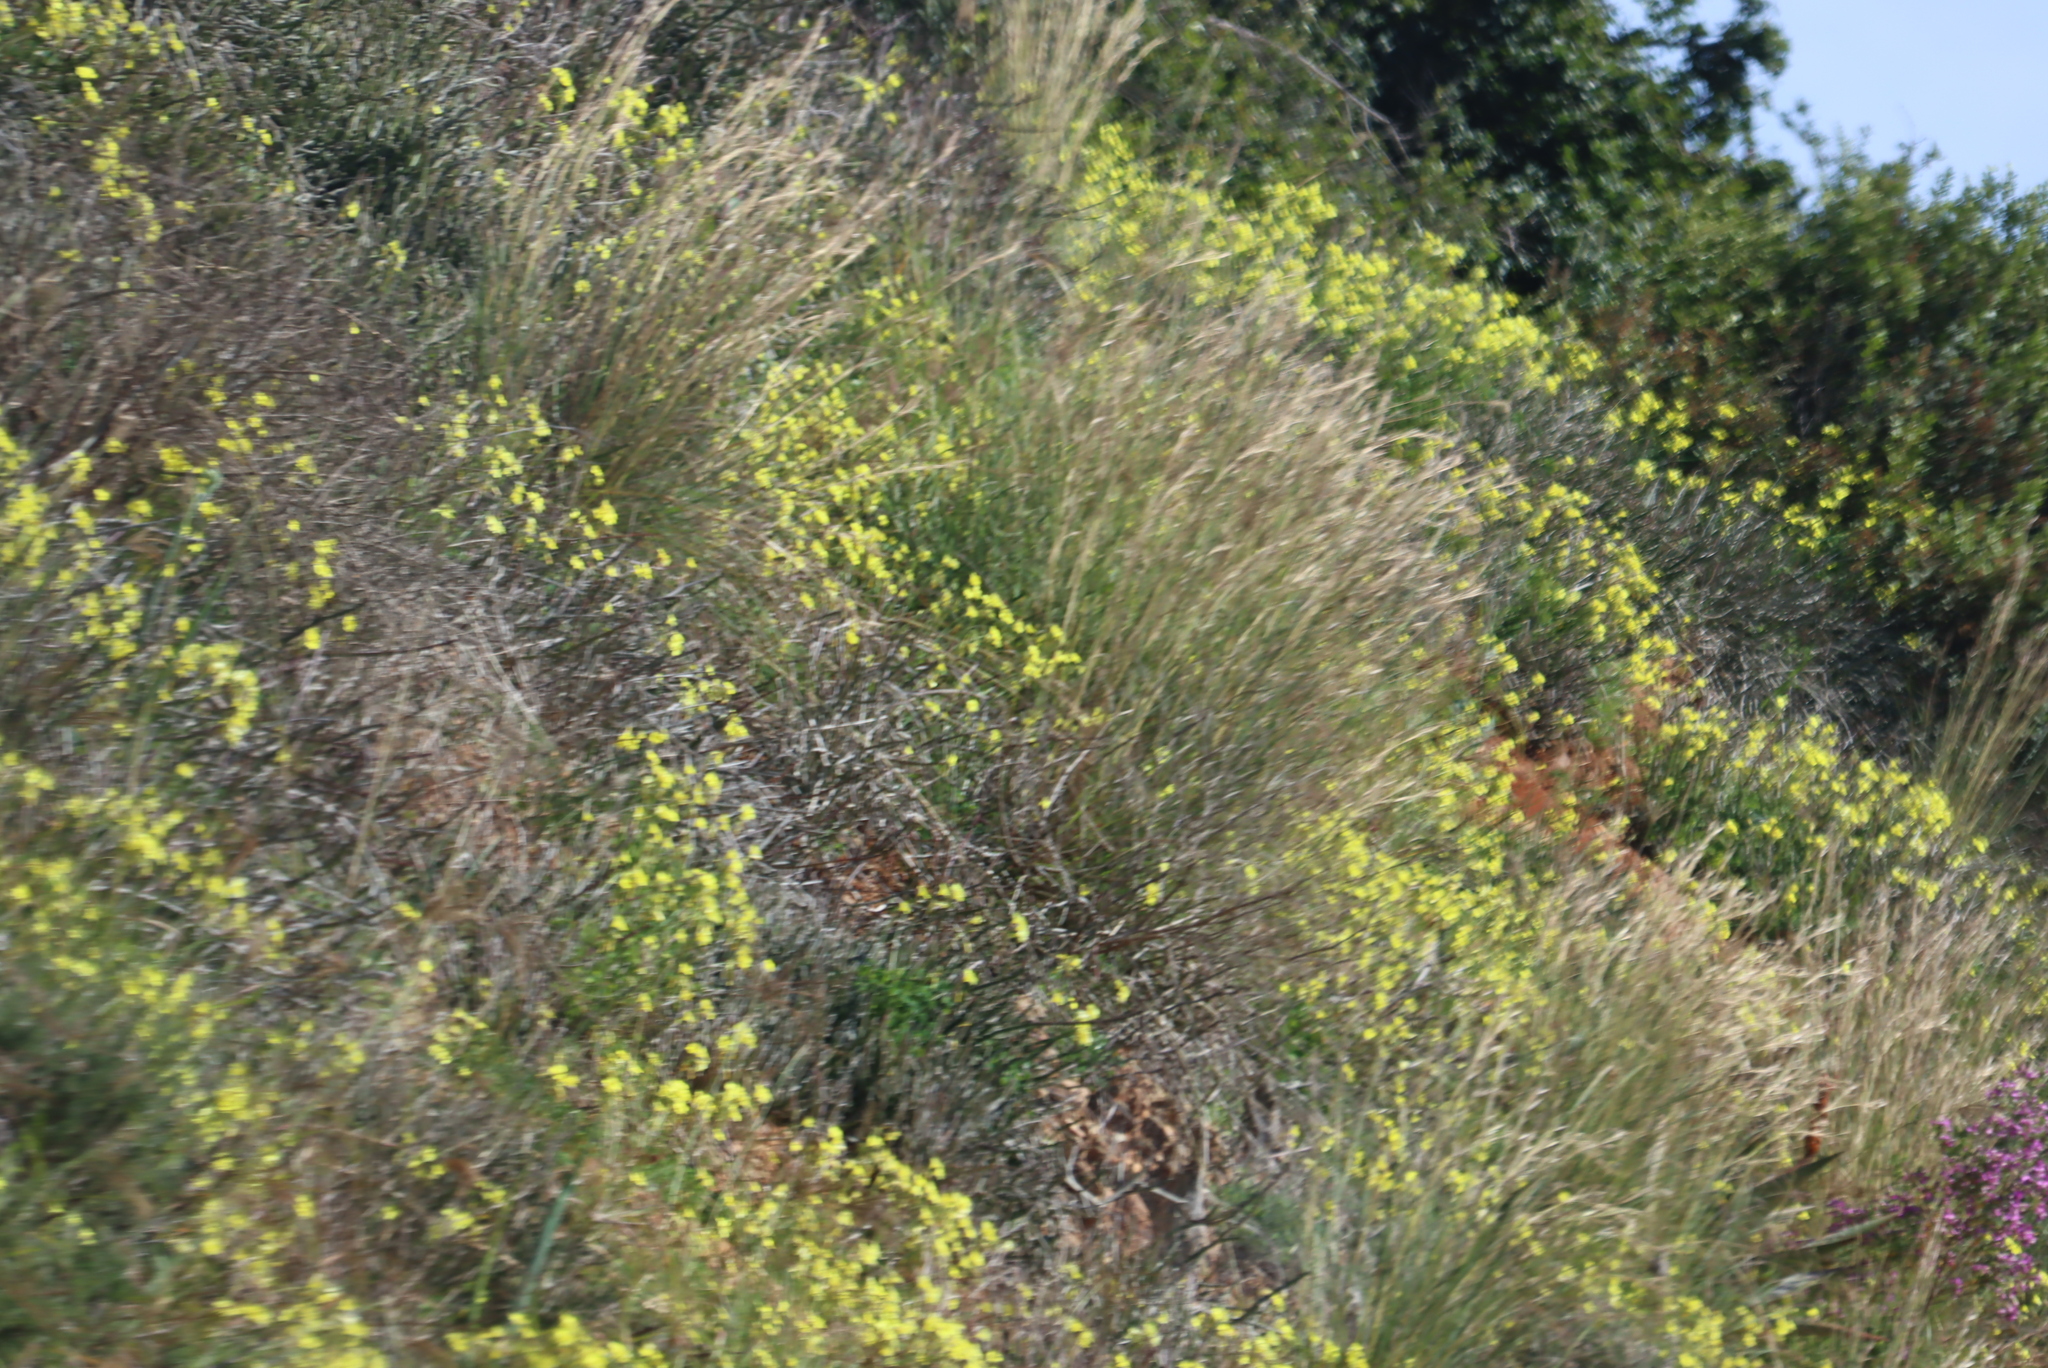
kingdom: Plantae
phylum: Tracheophyta
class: Magnoliopsida
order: Oxalidales
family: Oxalidaceae
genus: Oxalis
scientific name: Oxalis pes-caprae
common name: Bermuda-buttercup
